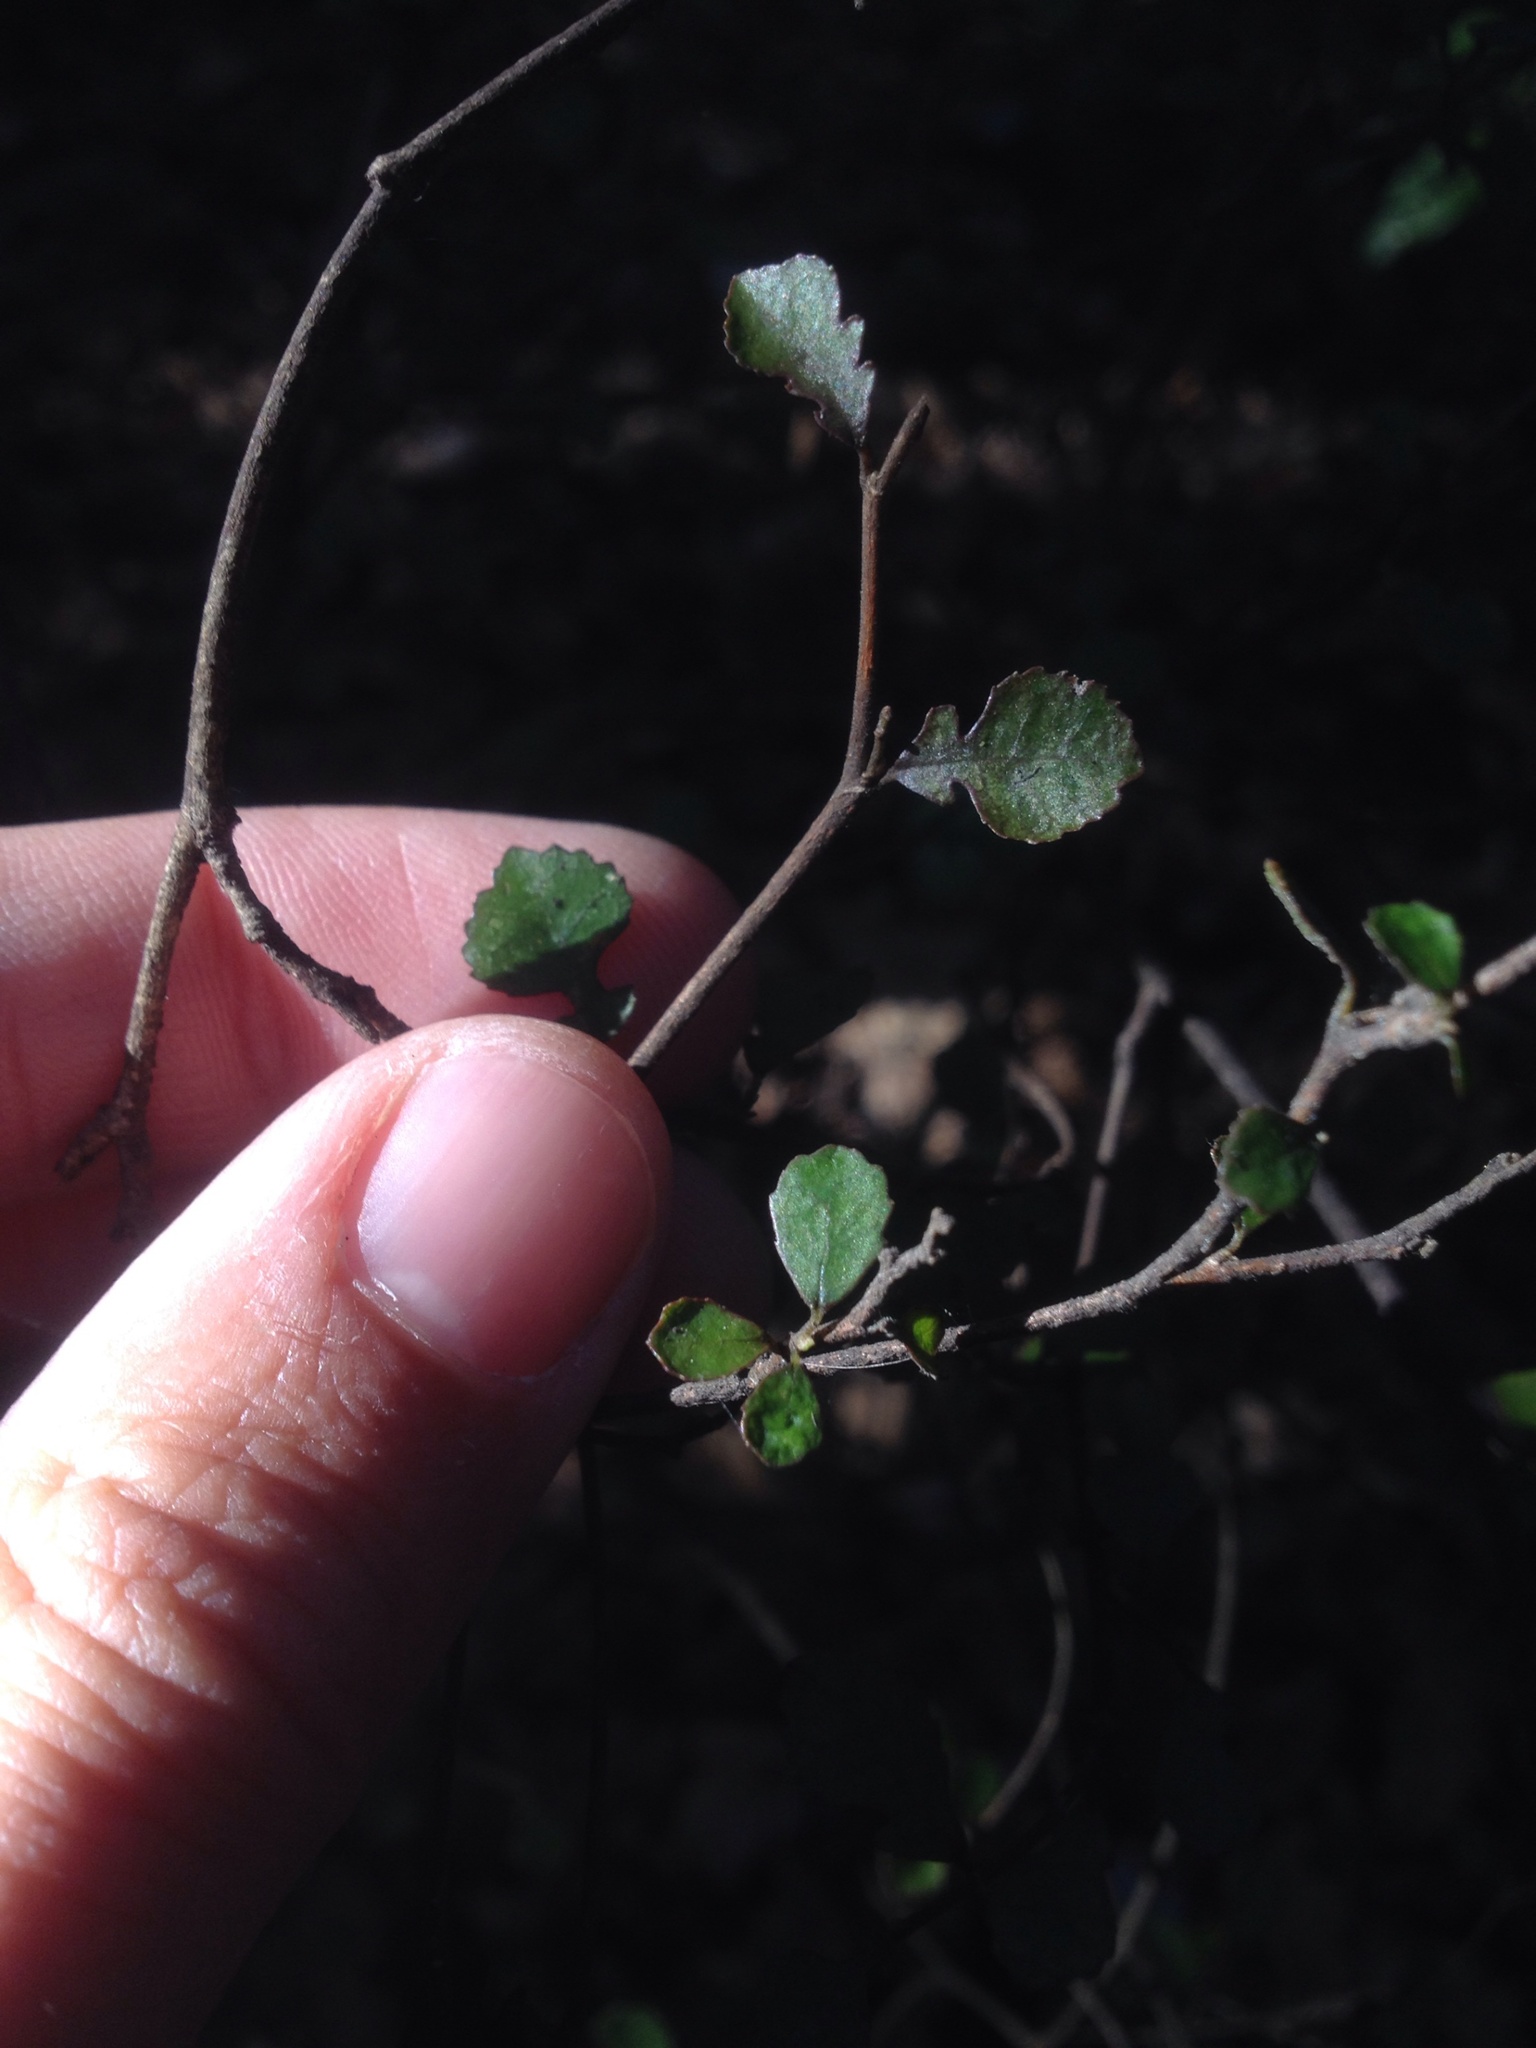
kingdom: Plantae
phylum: Tracheophyta
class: Magnoliopsida
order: Rosales
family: Moraceae
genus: Paratrophis
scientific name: Paratrophis microphylla
